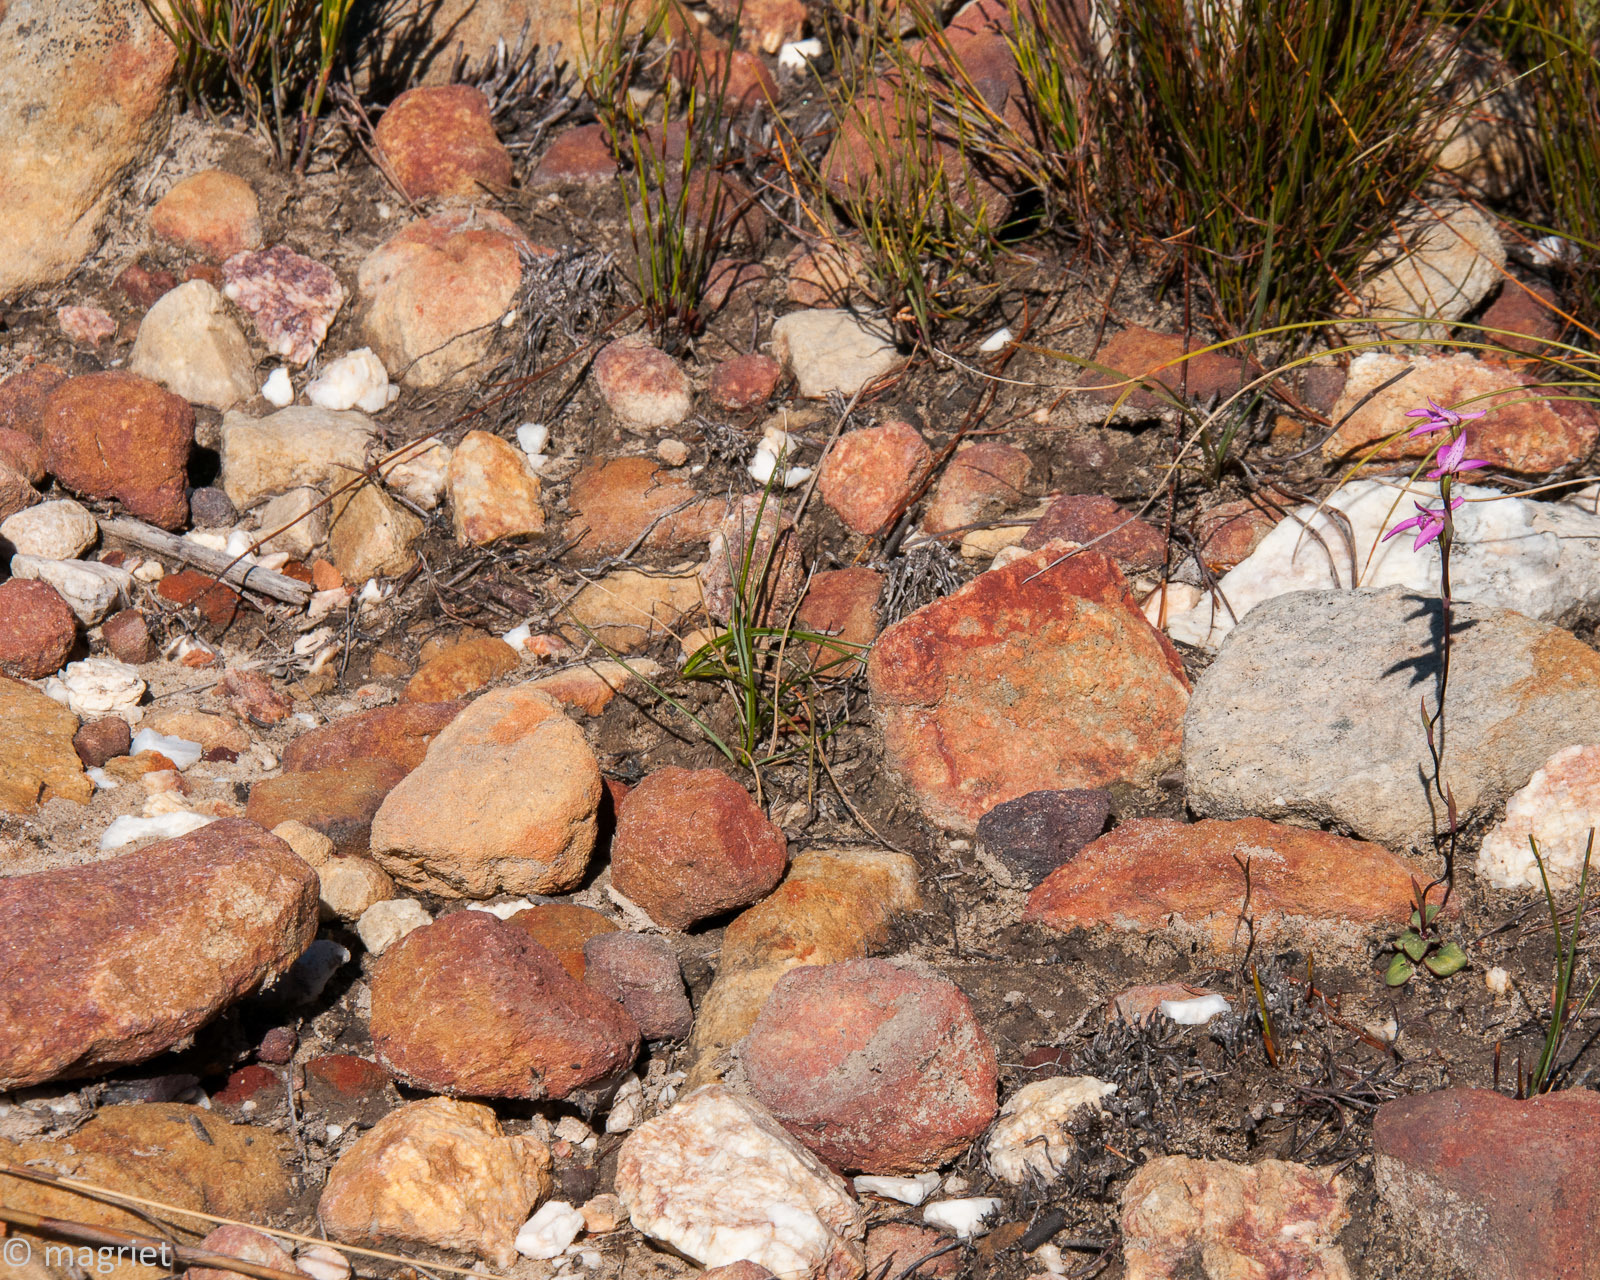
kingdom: Plantae
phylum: Tracheophyta
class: Liliopsida
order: Asparagales
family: Orchidaceae
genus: Disa
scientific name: Disa obliqua
